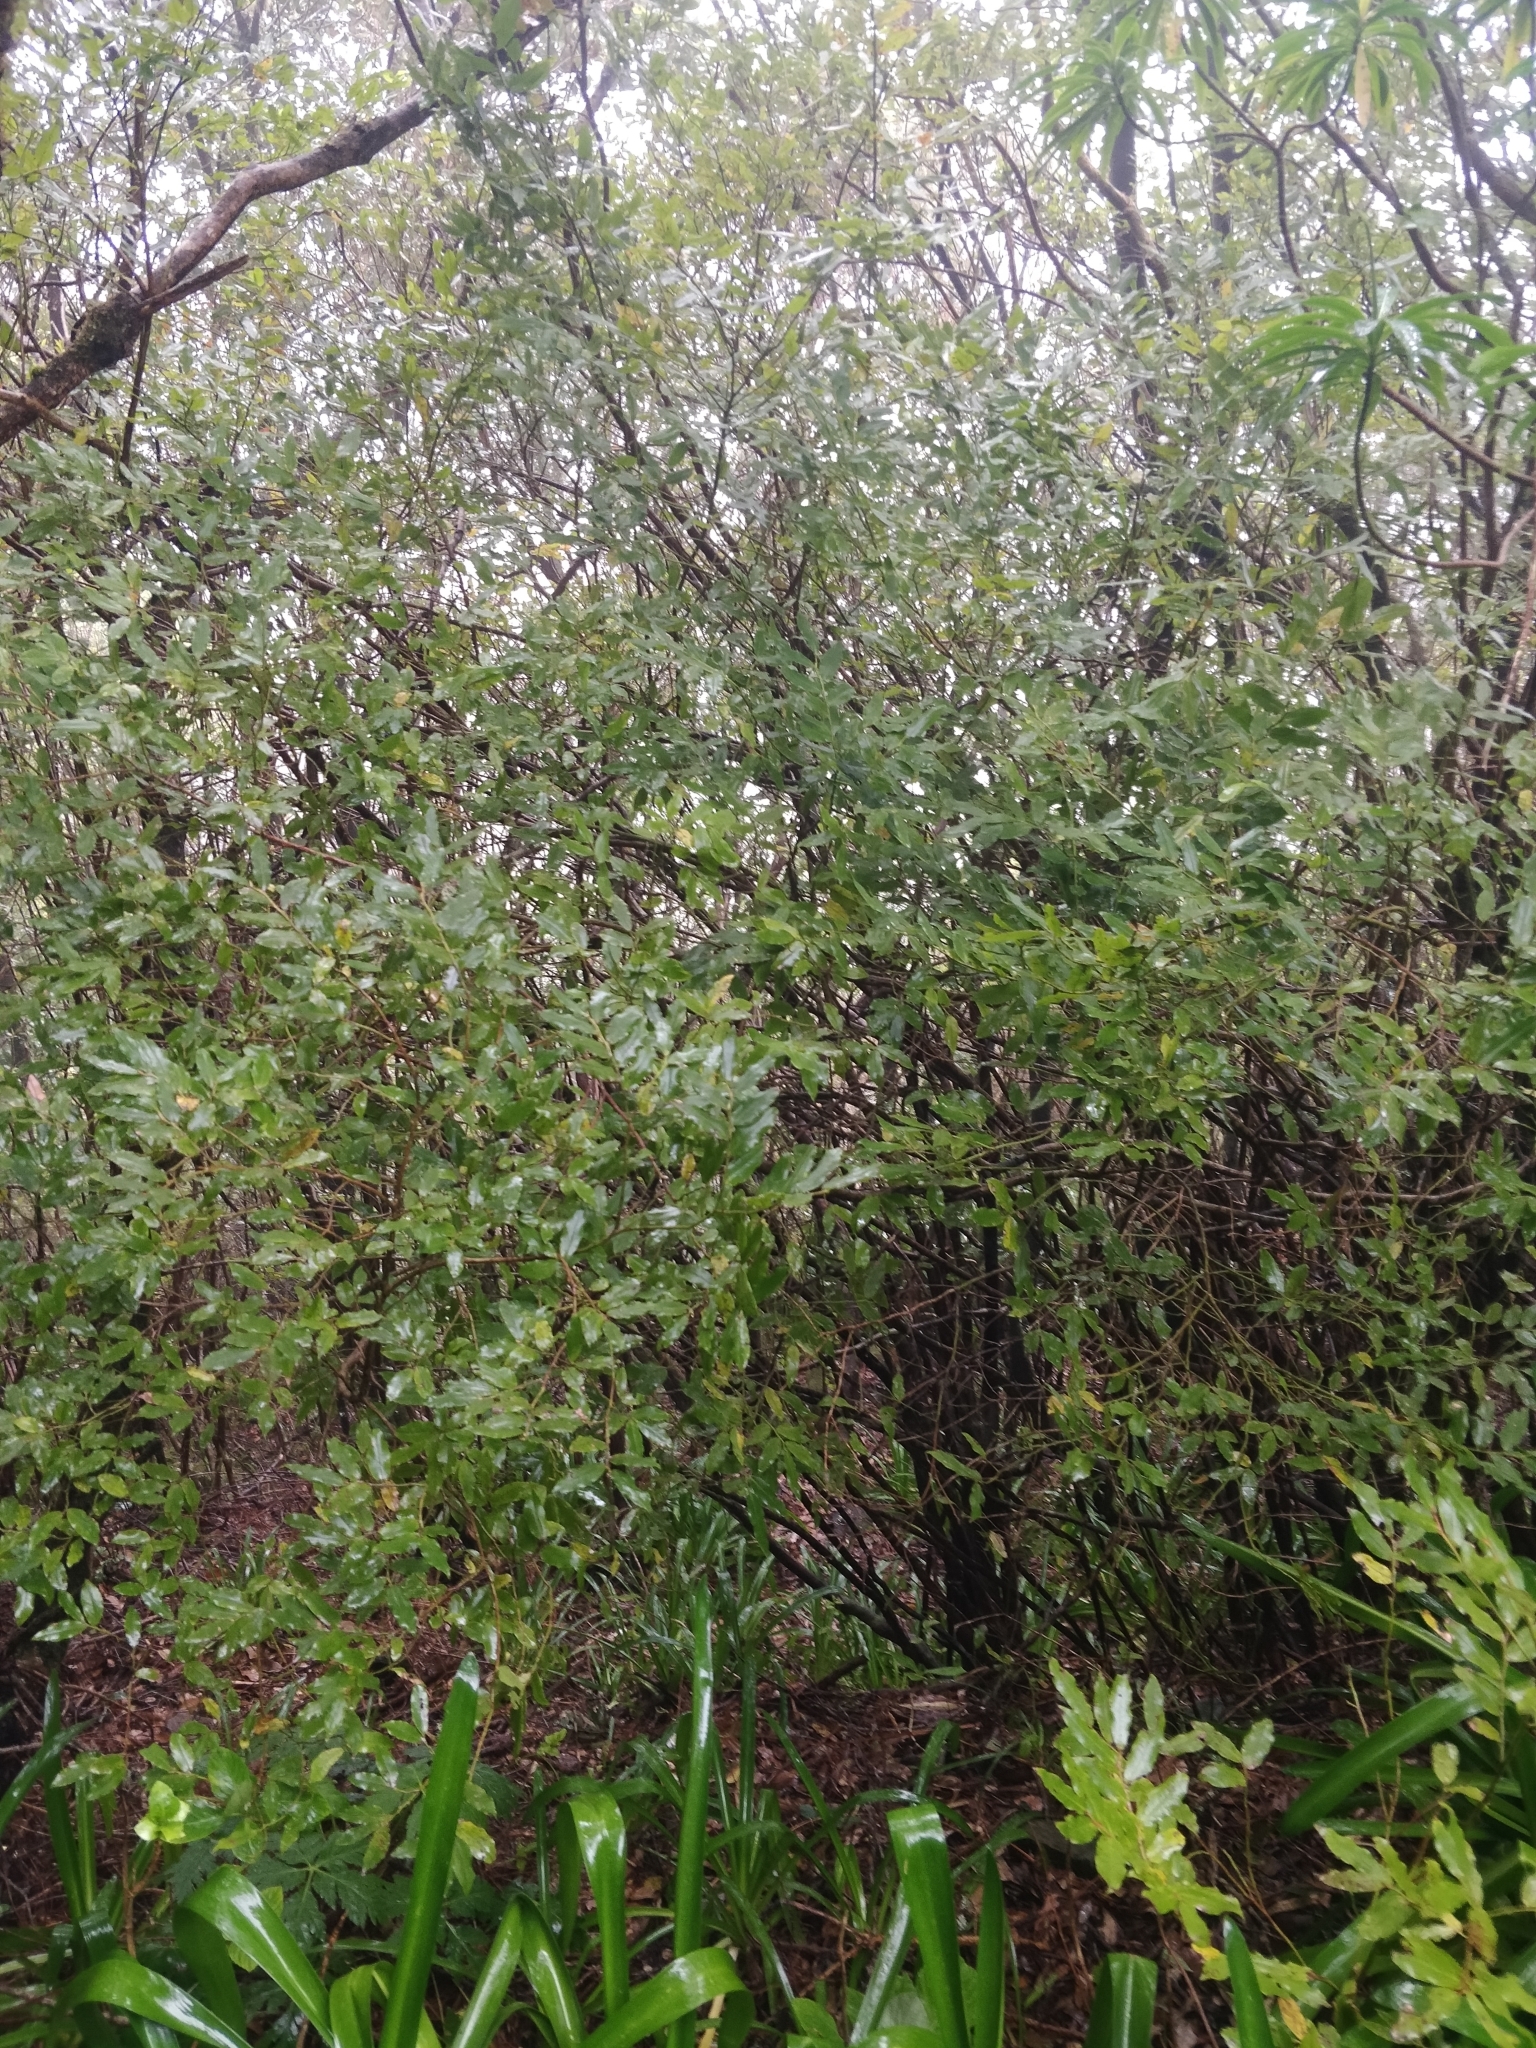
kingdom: Plantae
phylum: Tracheophyta
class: Magnoliopsida
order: Ericales
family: Ericaceae
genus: Vaccinium
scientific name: Vaccinium padifolium
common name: Madeiran blueberry
